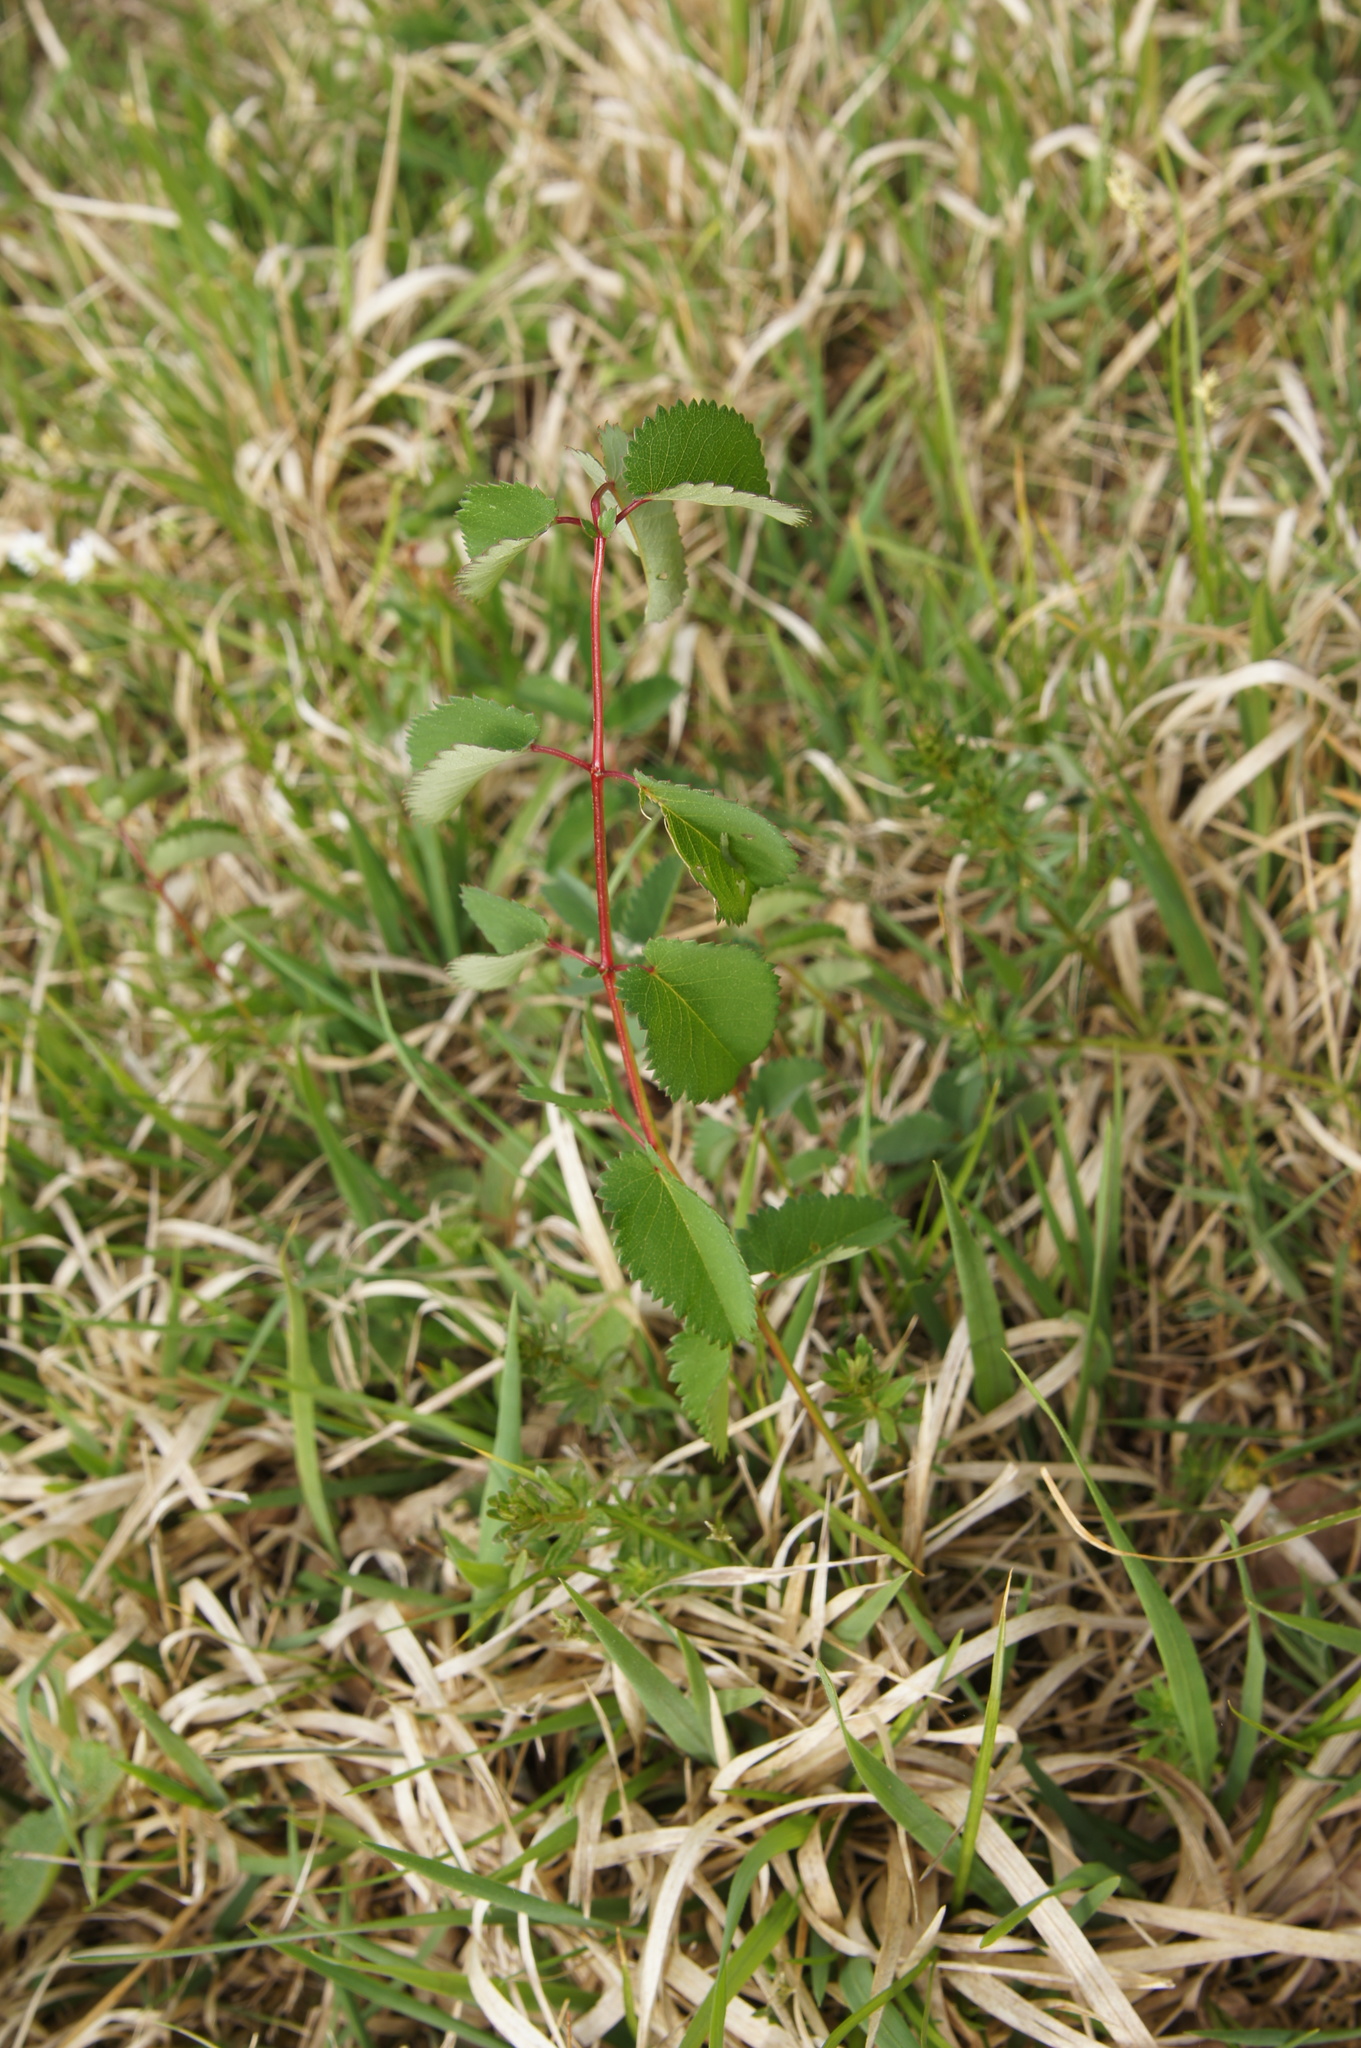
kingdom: Plantae
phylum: Tracheophyta
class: Magnoliopsida
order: Rosales
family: Rosaceae
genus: Sanguisorba
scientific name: Sanguisorba officinalis
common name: Great burnet
